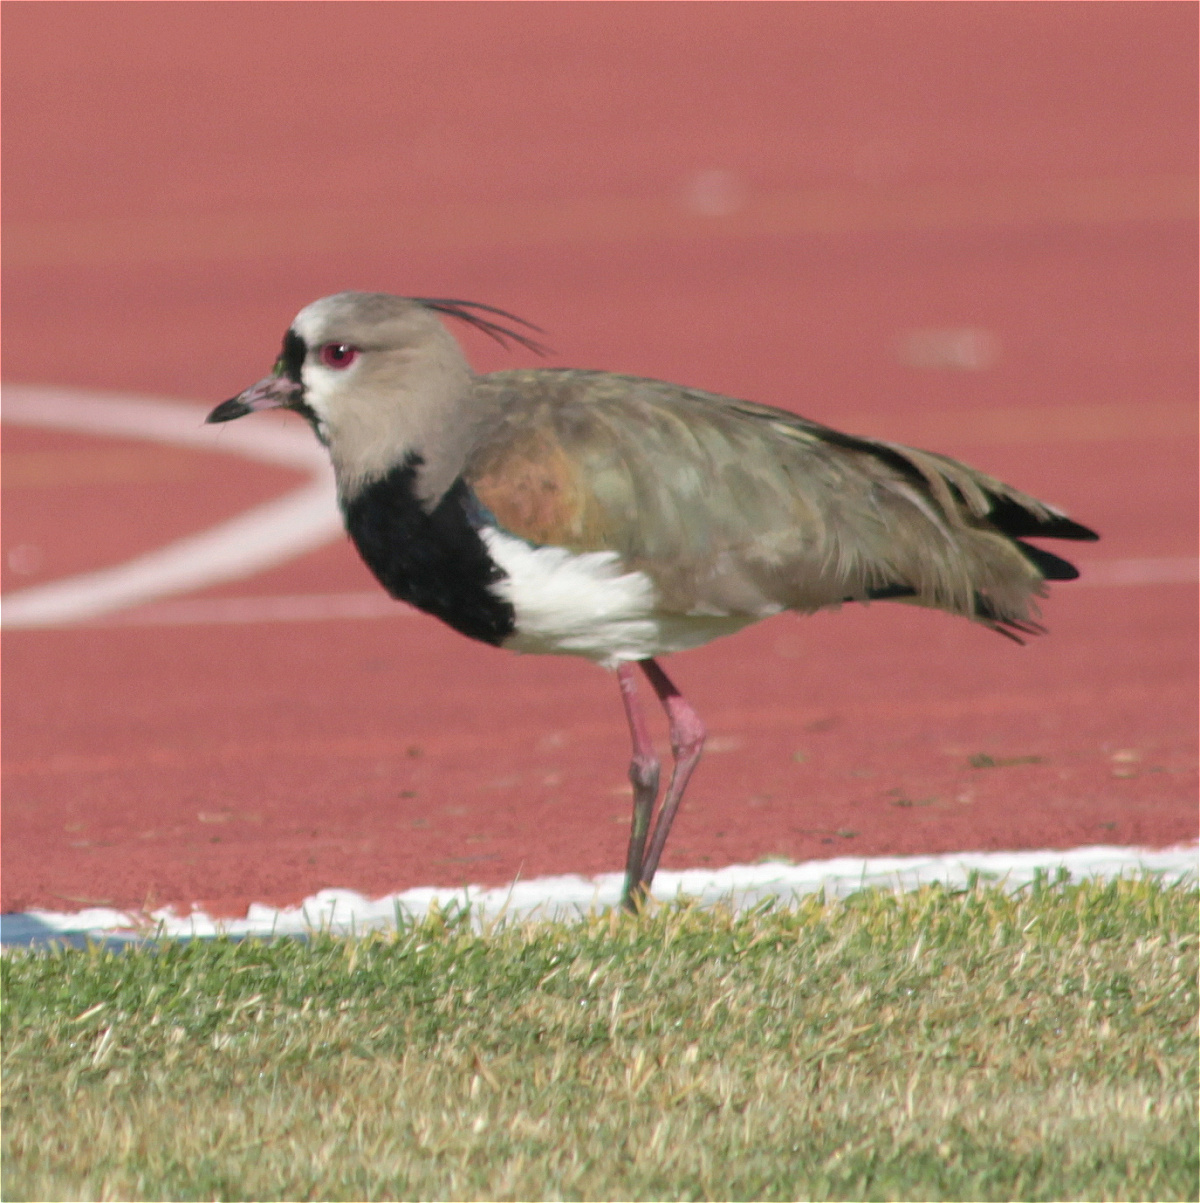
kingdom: Animalia
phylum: Chordata
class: Aves
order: Charadriiformes
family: Charadriidae
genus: Vanellus
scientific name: Vanellus chilensis
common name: Southern lapwing
